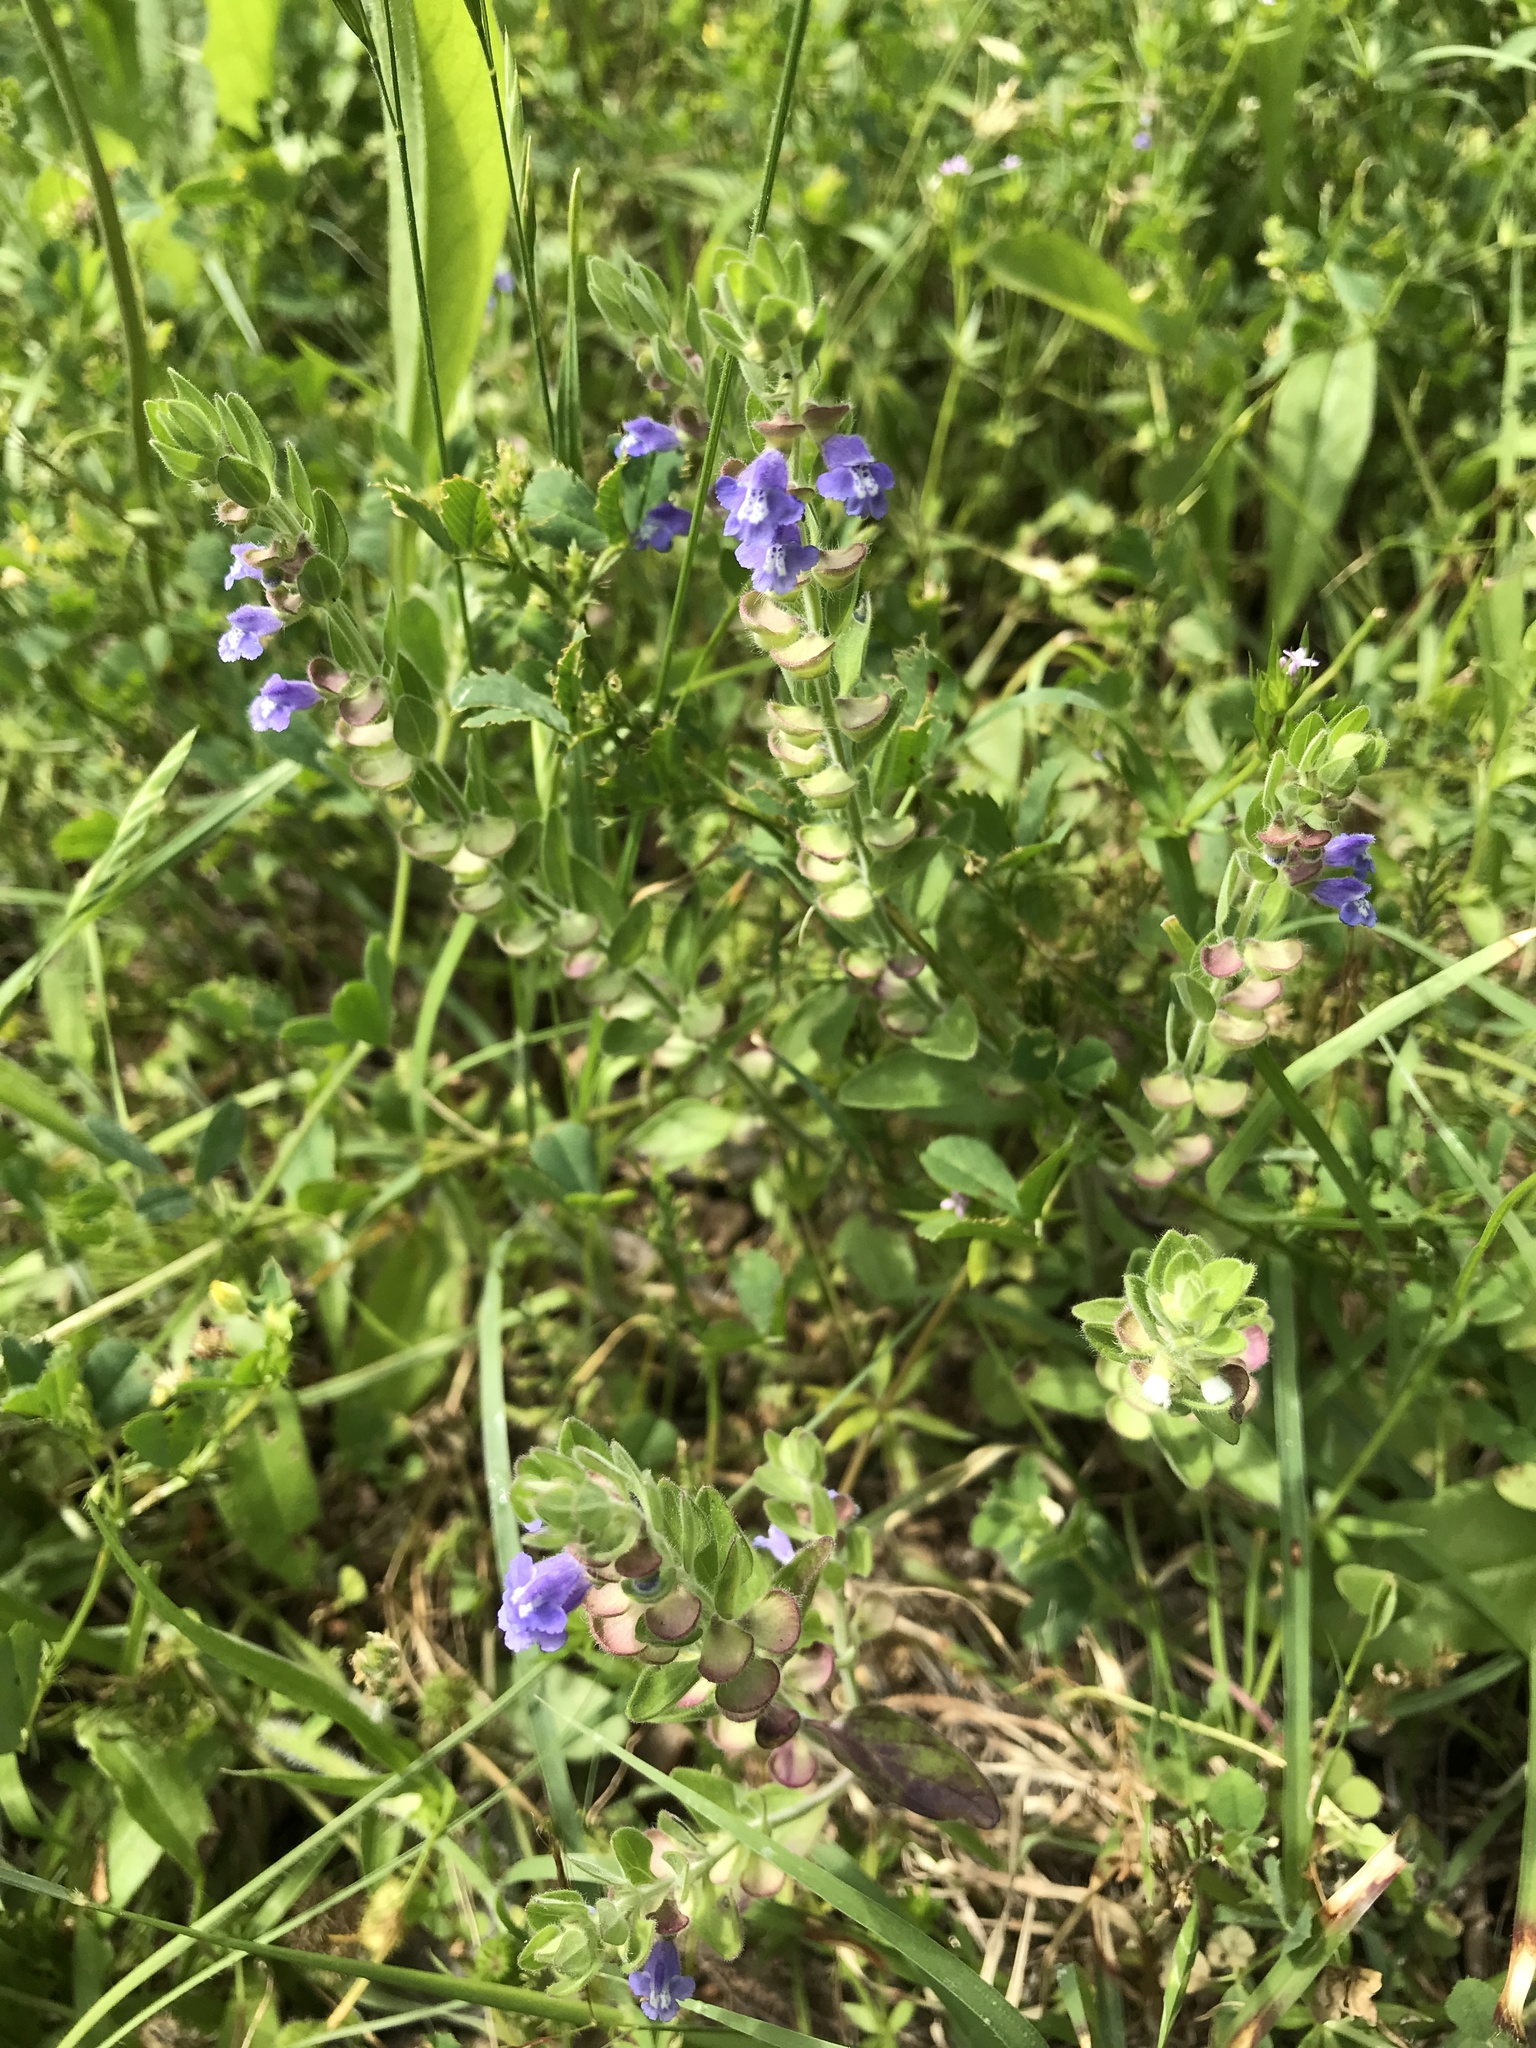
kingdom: Plantae
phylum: Tracheophyta
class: Magnoliopsida
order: Lamiales
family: Lamiaceae
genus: Scutellaria
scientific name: Scutellaria drummondii
